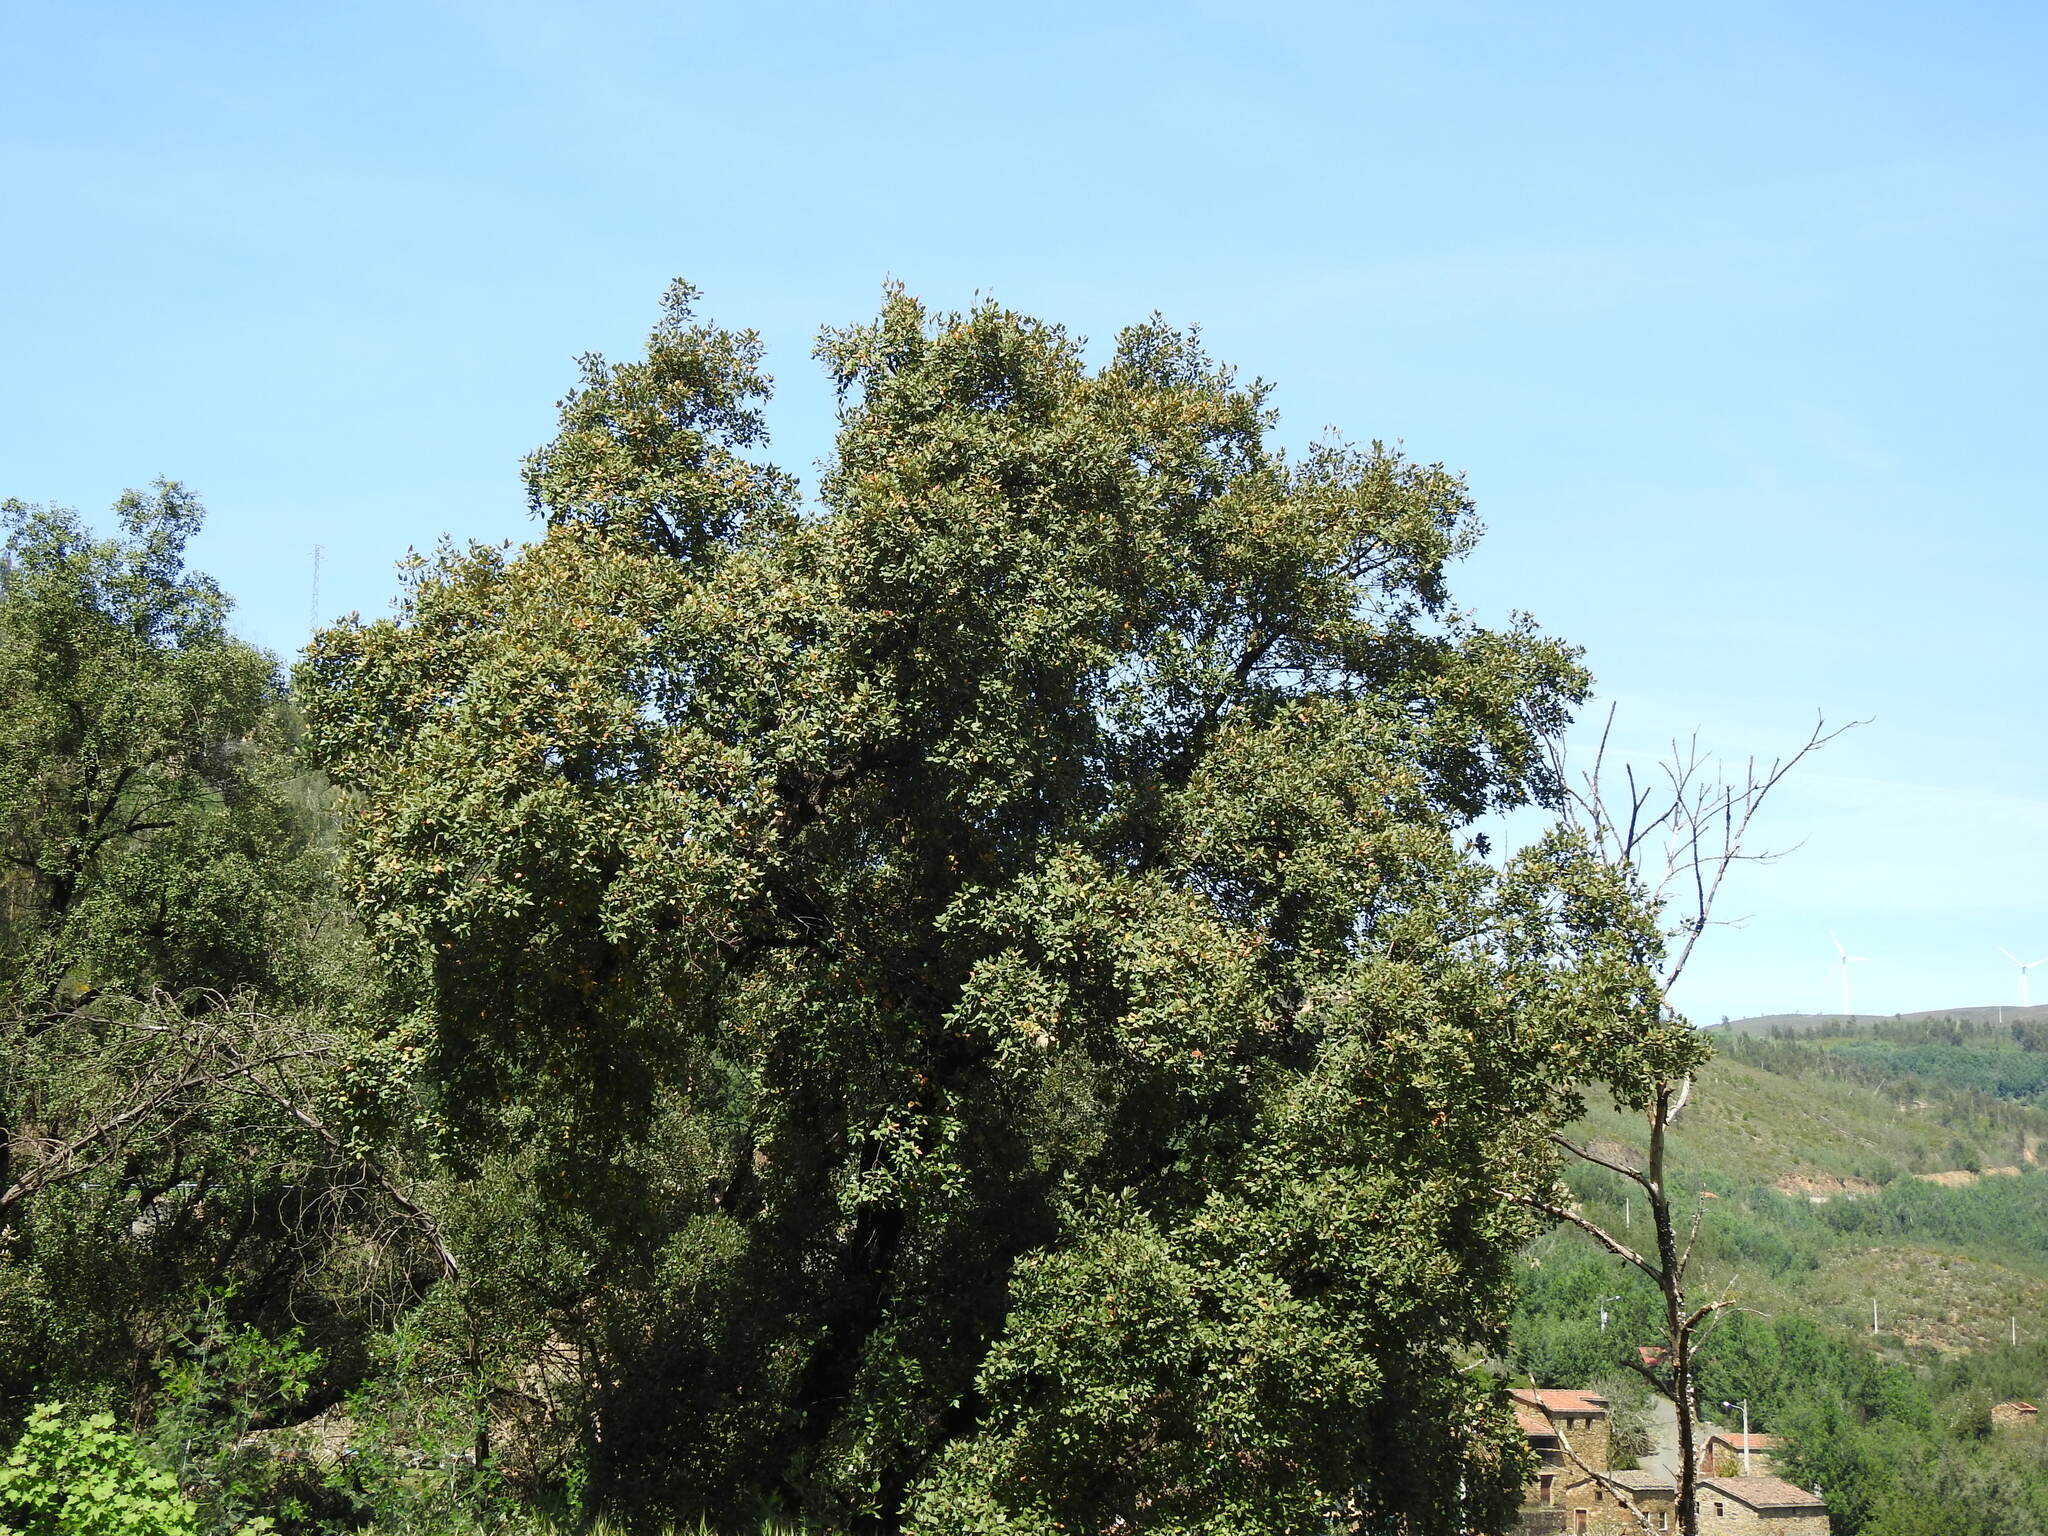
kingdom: Plantae
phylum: Tracheophyta
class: Magnoliopsida
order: Fagales
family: Fagaceae
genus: Quercus
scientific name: Quercus suber
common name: Cork oak
